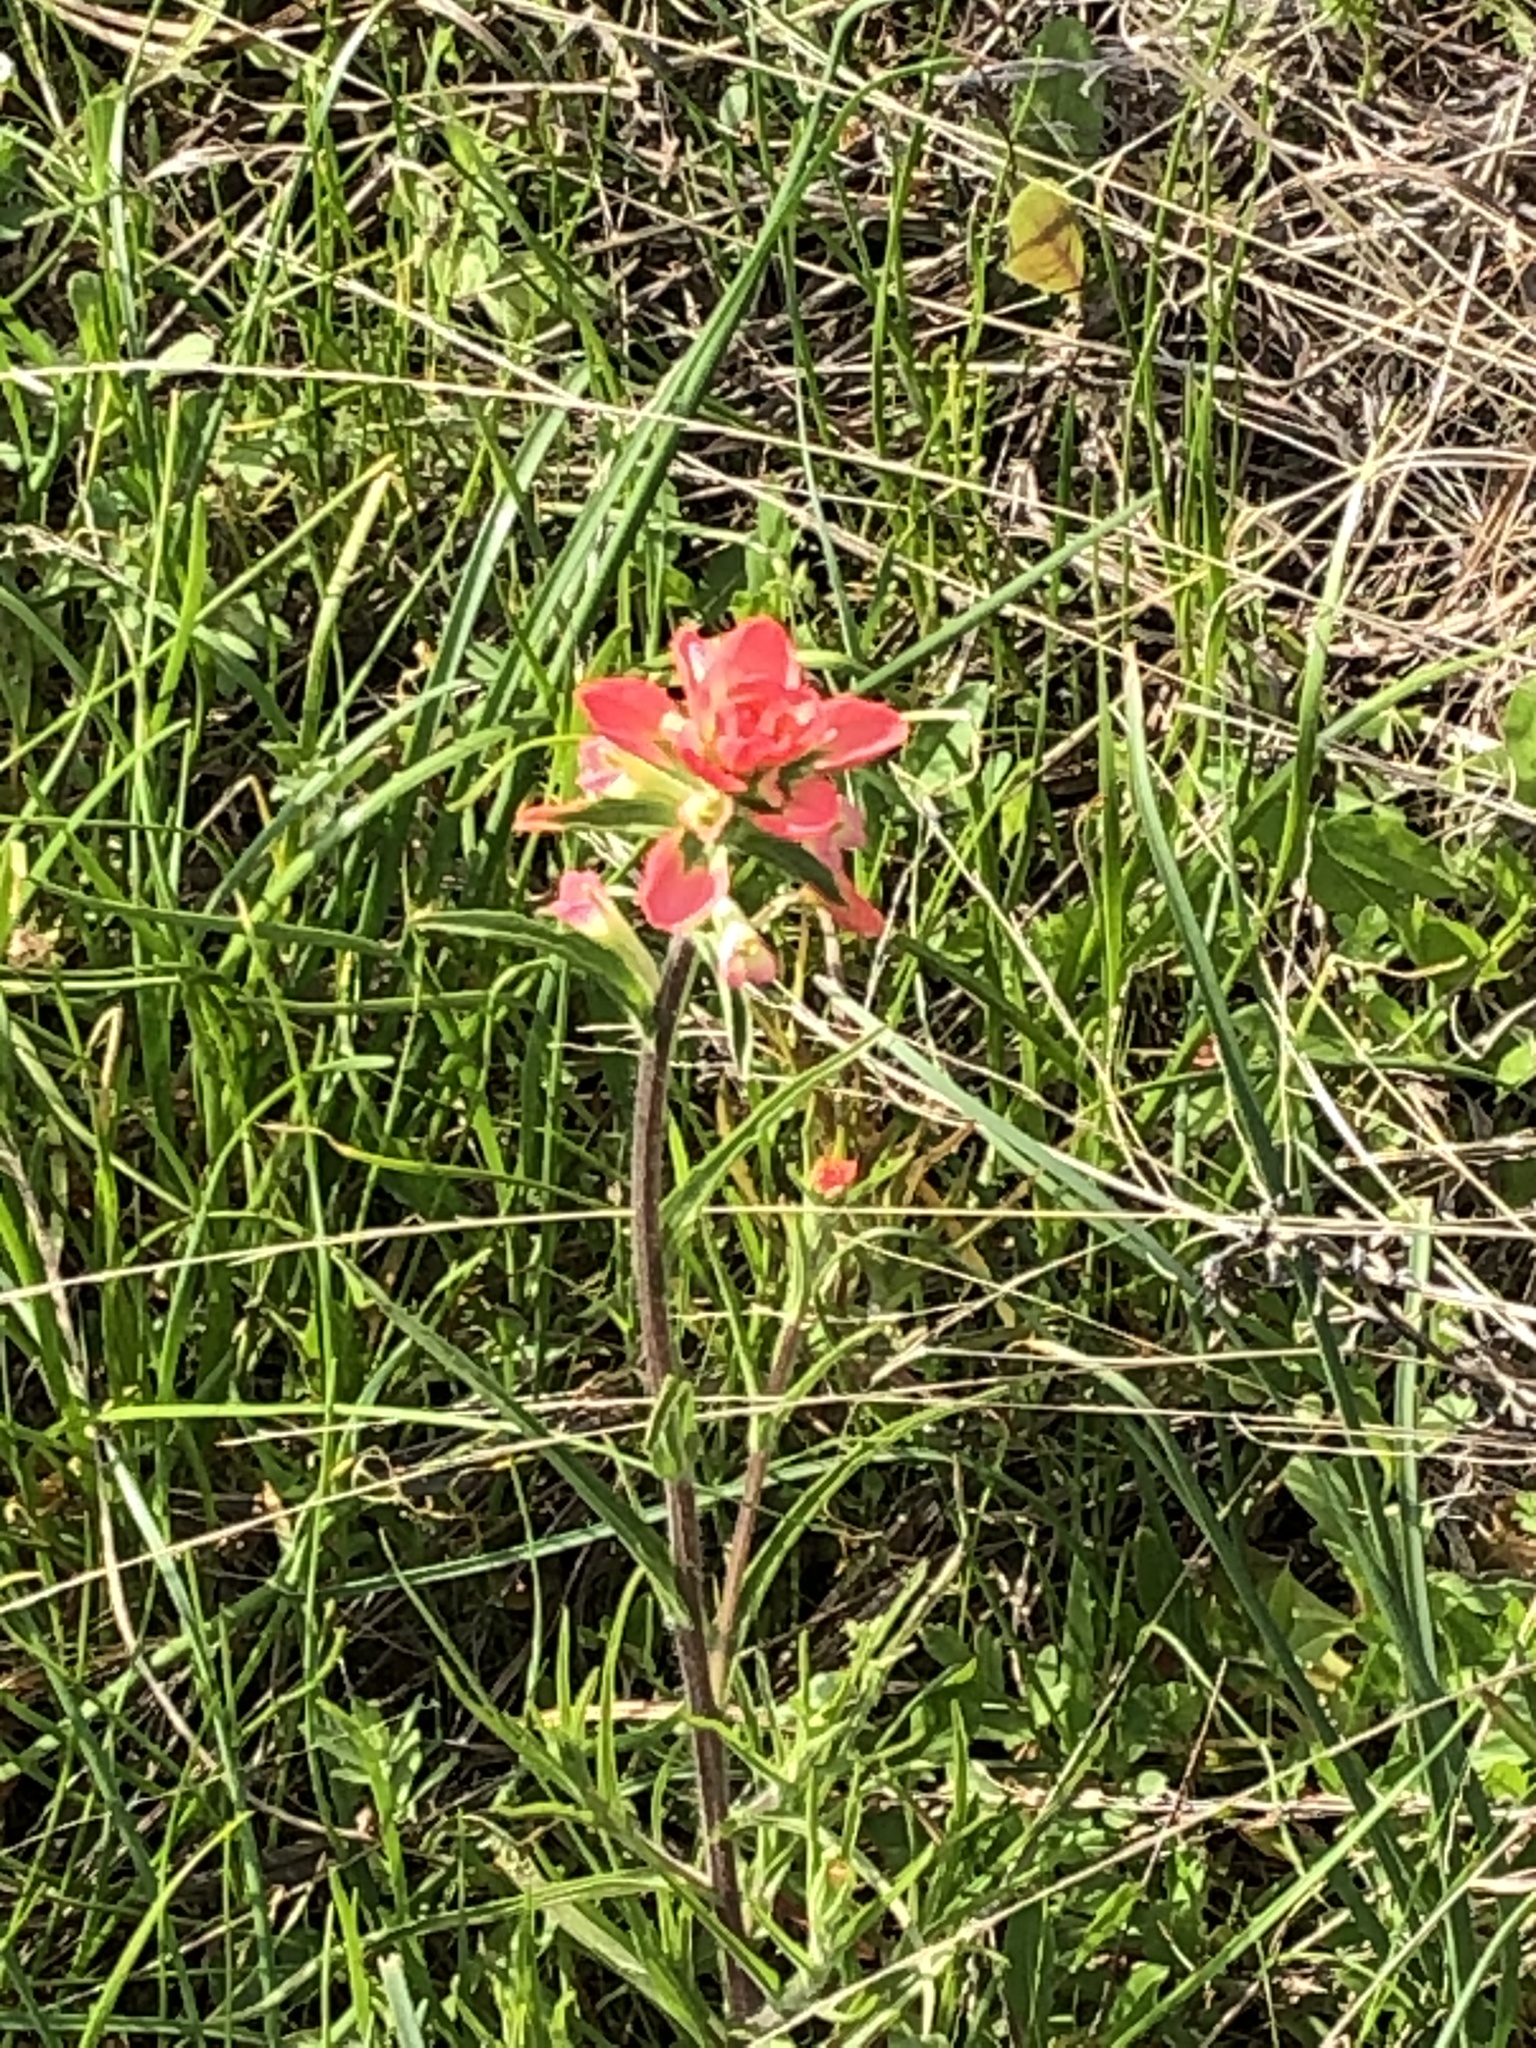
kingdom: Plantae
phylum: Tracheophyta
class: Magnoliopsida
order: Lamiales
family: Orobanchaceae
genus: Castilleja
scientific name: Castilleja indivisa
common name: Texas paintbrush
